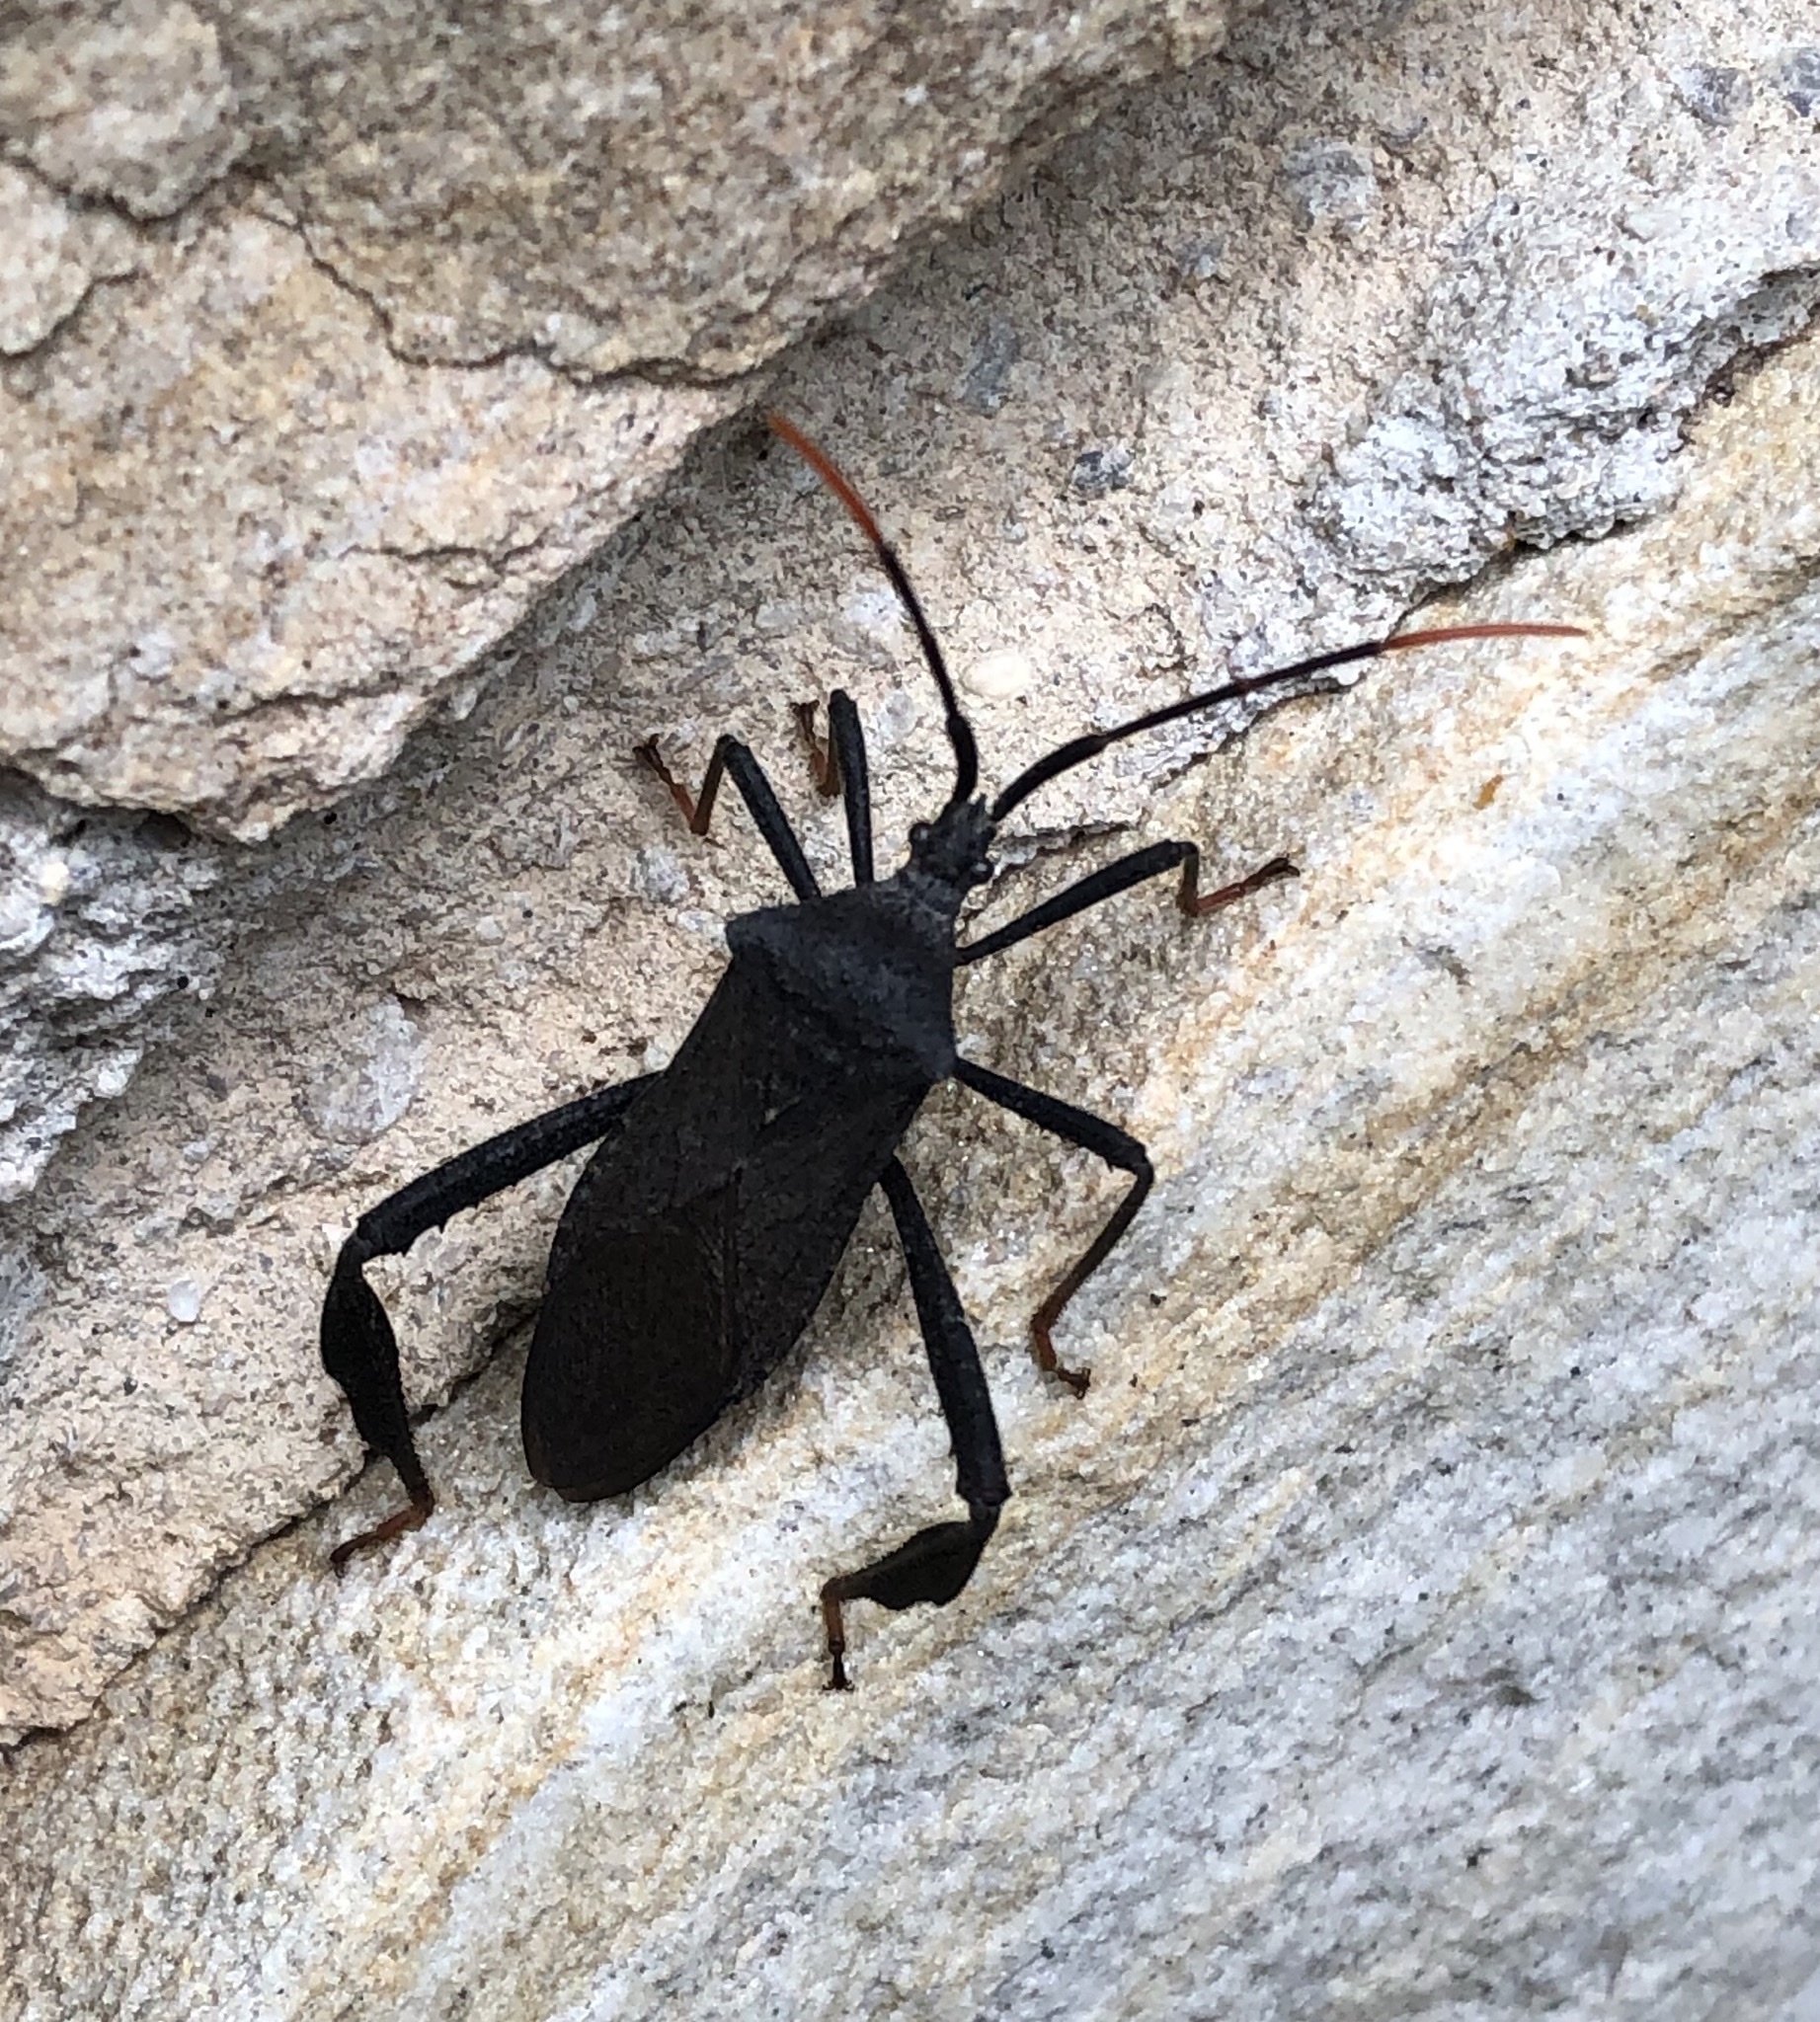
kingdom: Animalia
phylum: Arthropoda
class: Insecta
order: Hemiptera
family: Coreidae
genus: Acanthocephala
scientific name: Acanthocephala terminalis
